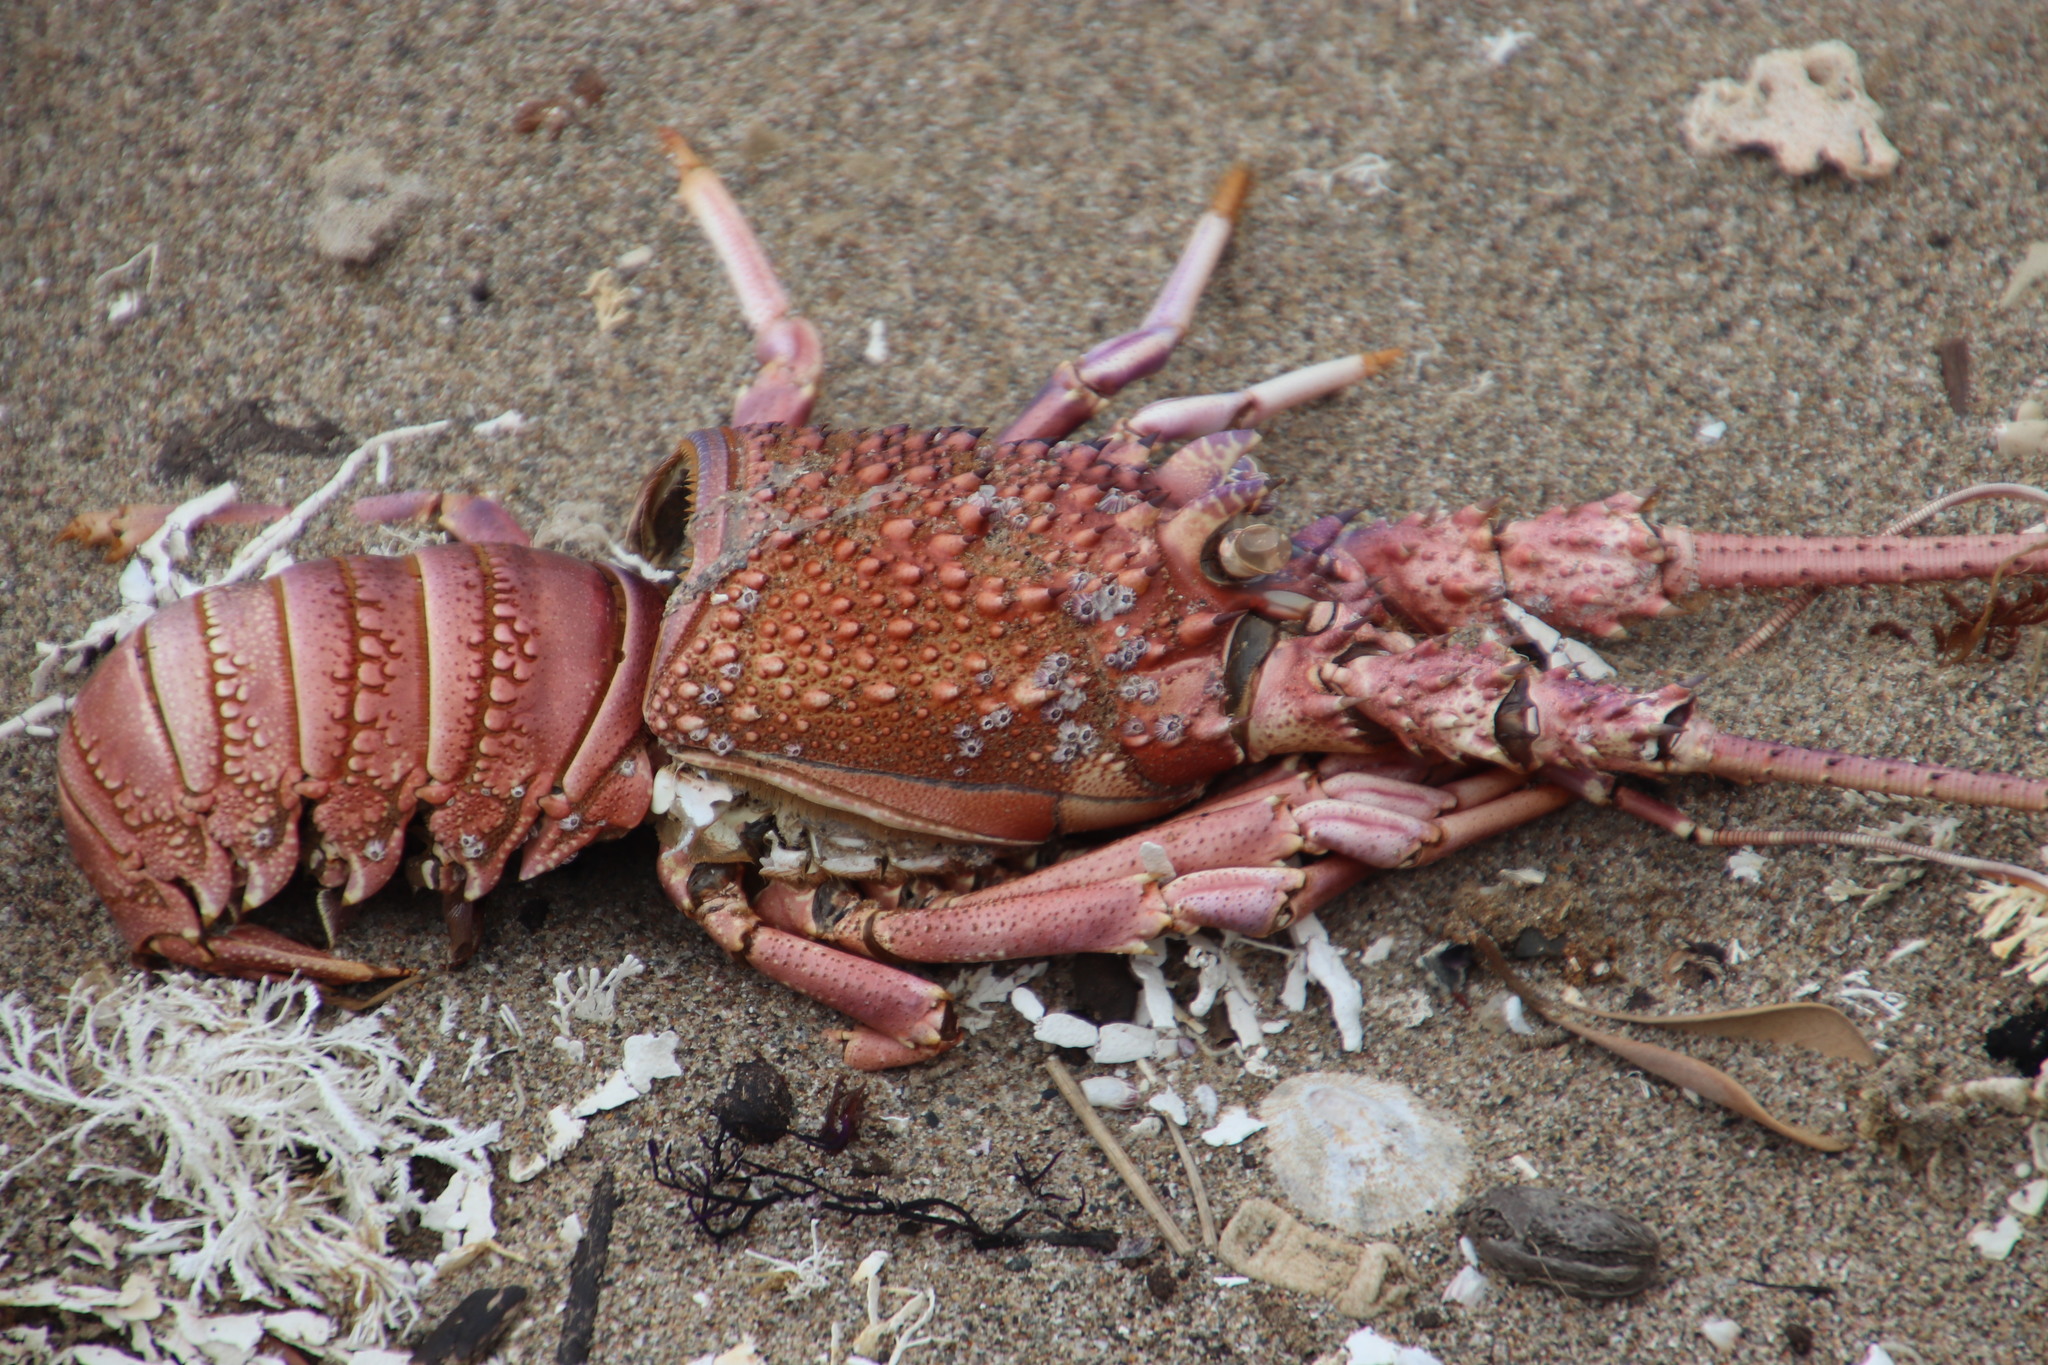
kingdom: Animalia
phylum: Arthropoda
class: Malacostraca
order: Decapoda
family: Palinuridae
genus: Panulirus
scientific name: Panulirus homarus
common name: Scalloped spiny lobster
